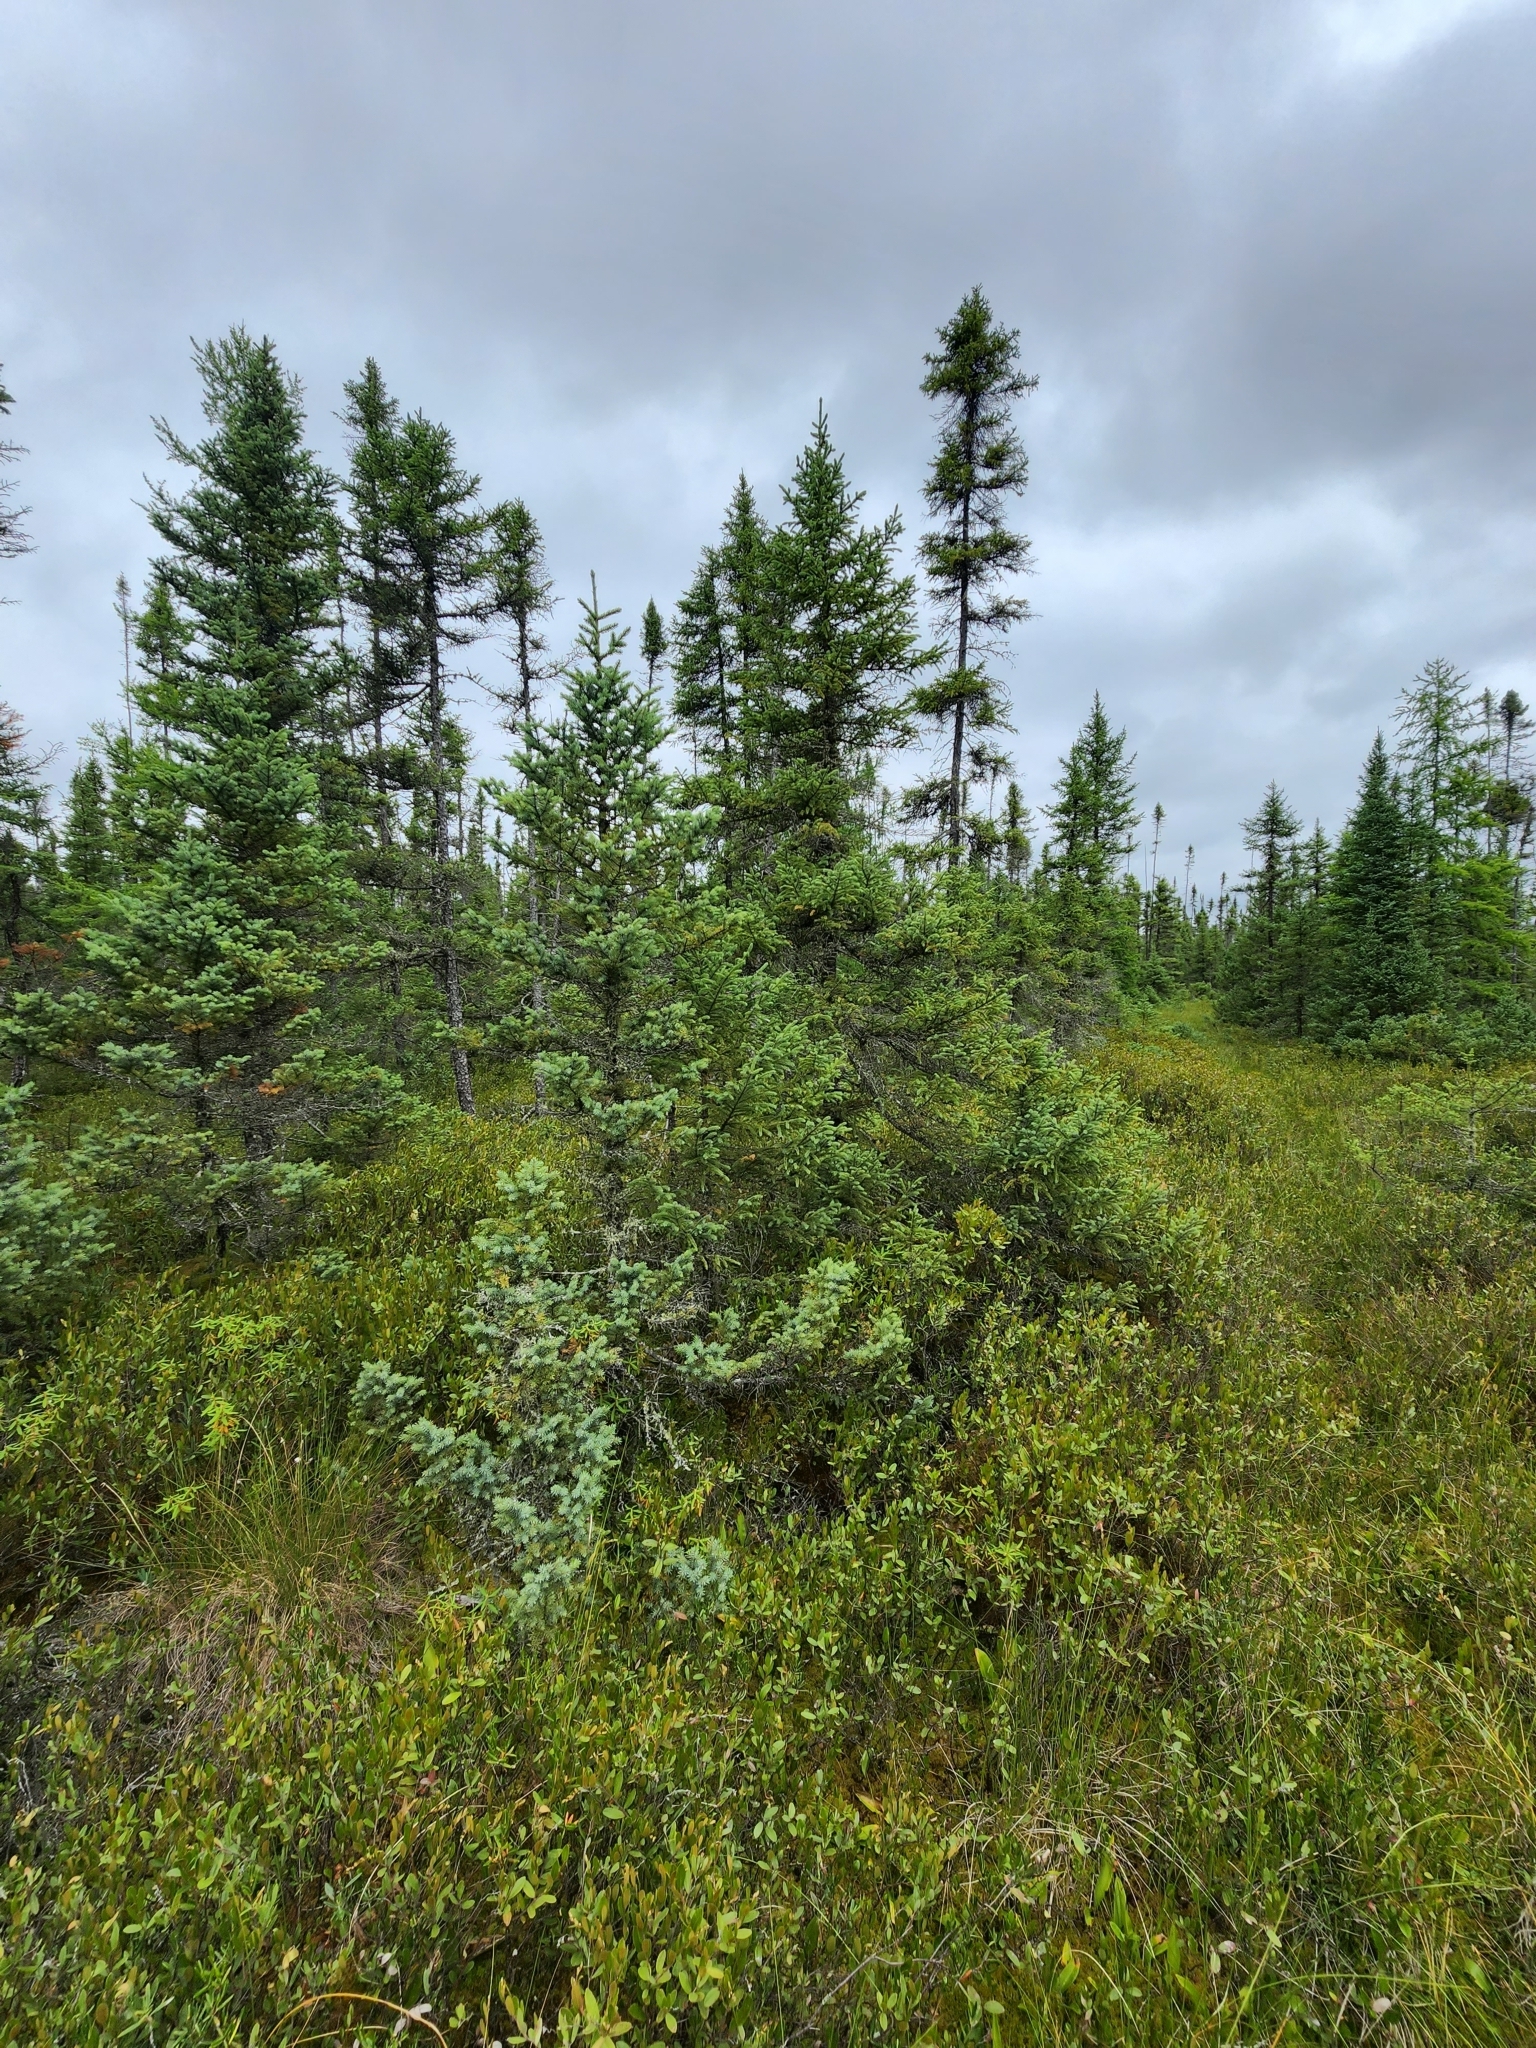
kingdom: Plantae
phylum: Tracheophyta
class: Pinopsida
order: Pinales
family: Pinaceae
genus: Picea
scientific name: Picea mariana
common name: Black spruce
